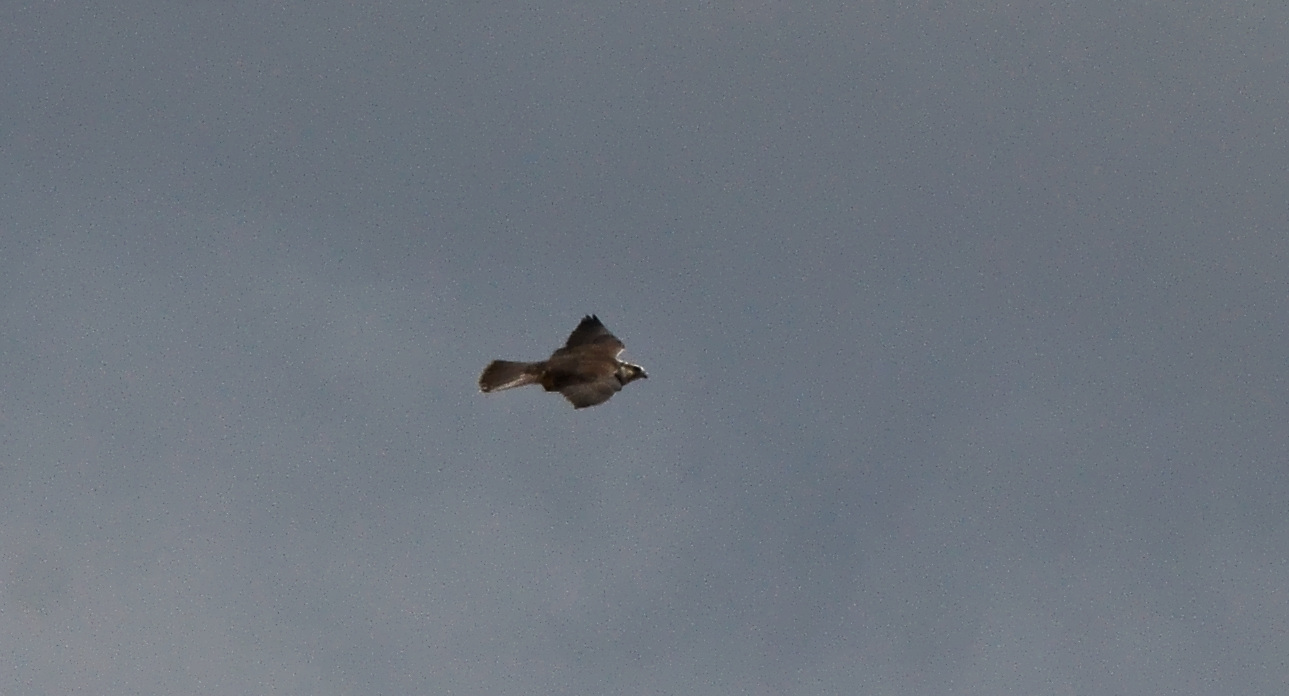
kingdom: Animalia
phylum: Chordata
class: Aves
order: Falconiformes
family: Falconidae
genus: Falco
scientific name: Falco cherrug
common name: Saker falcon
